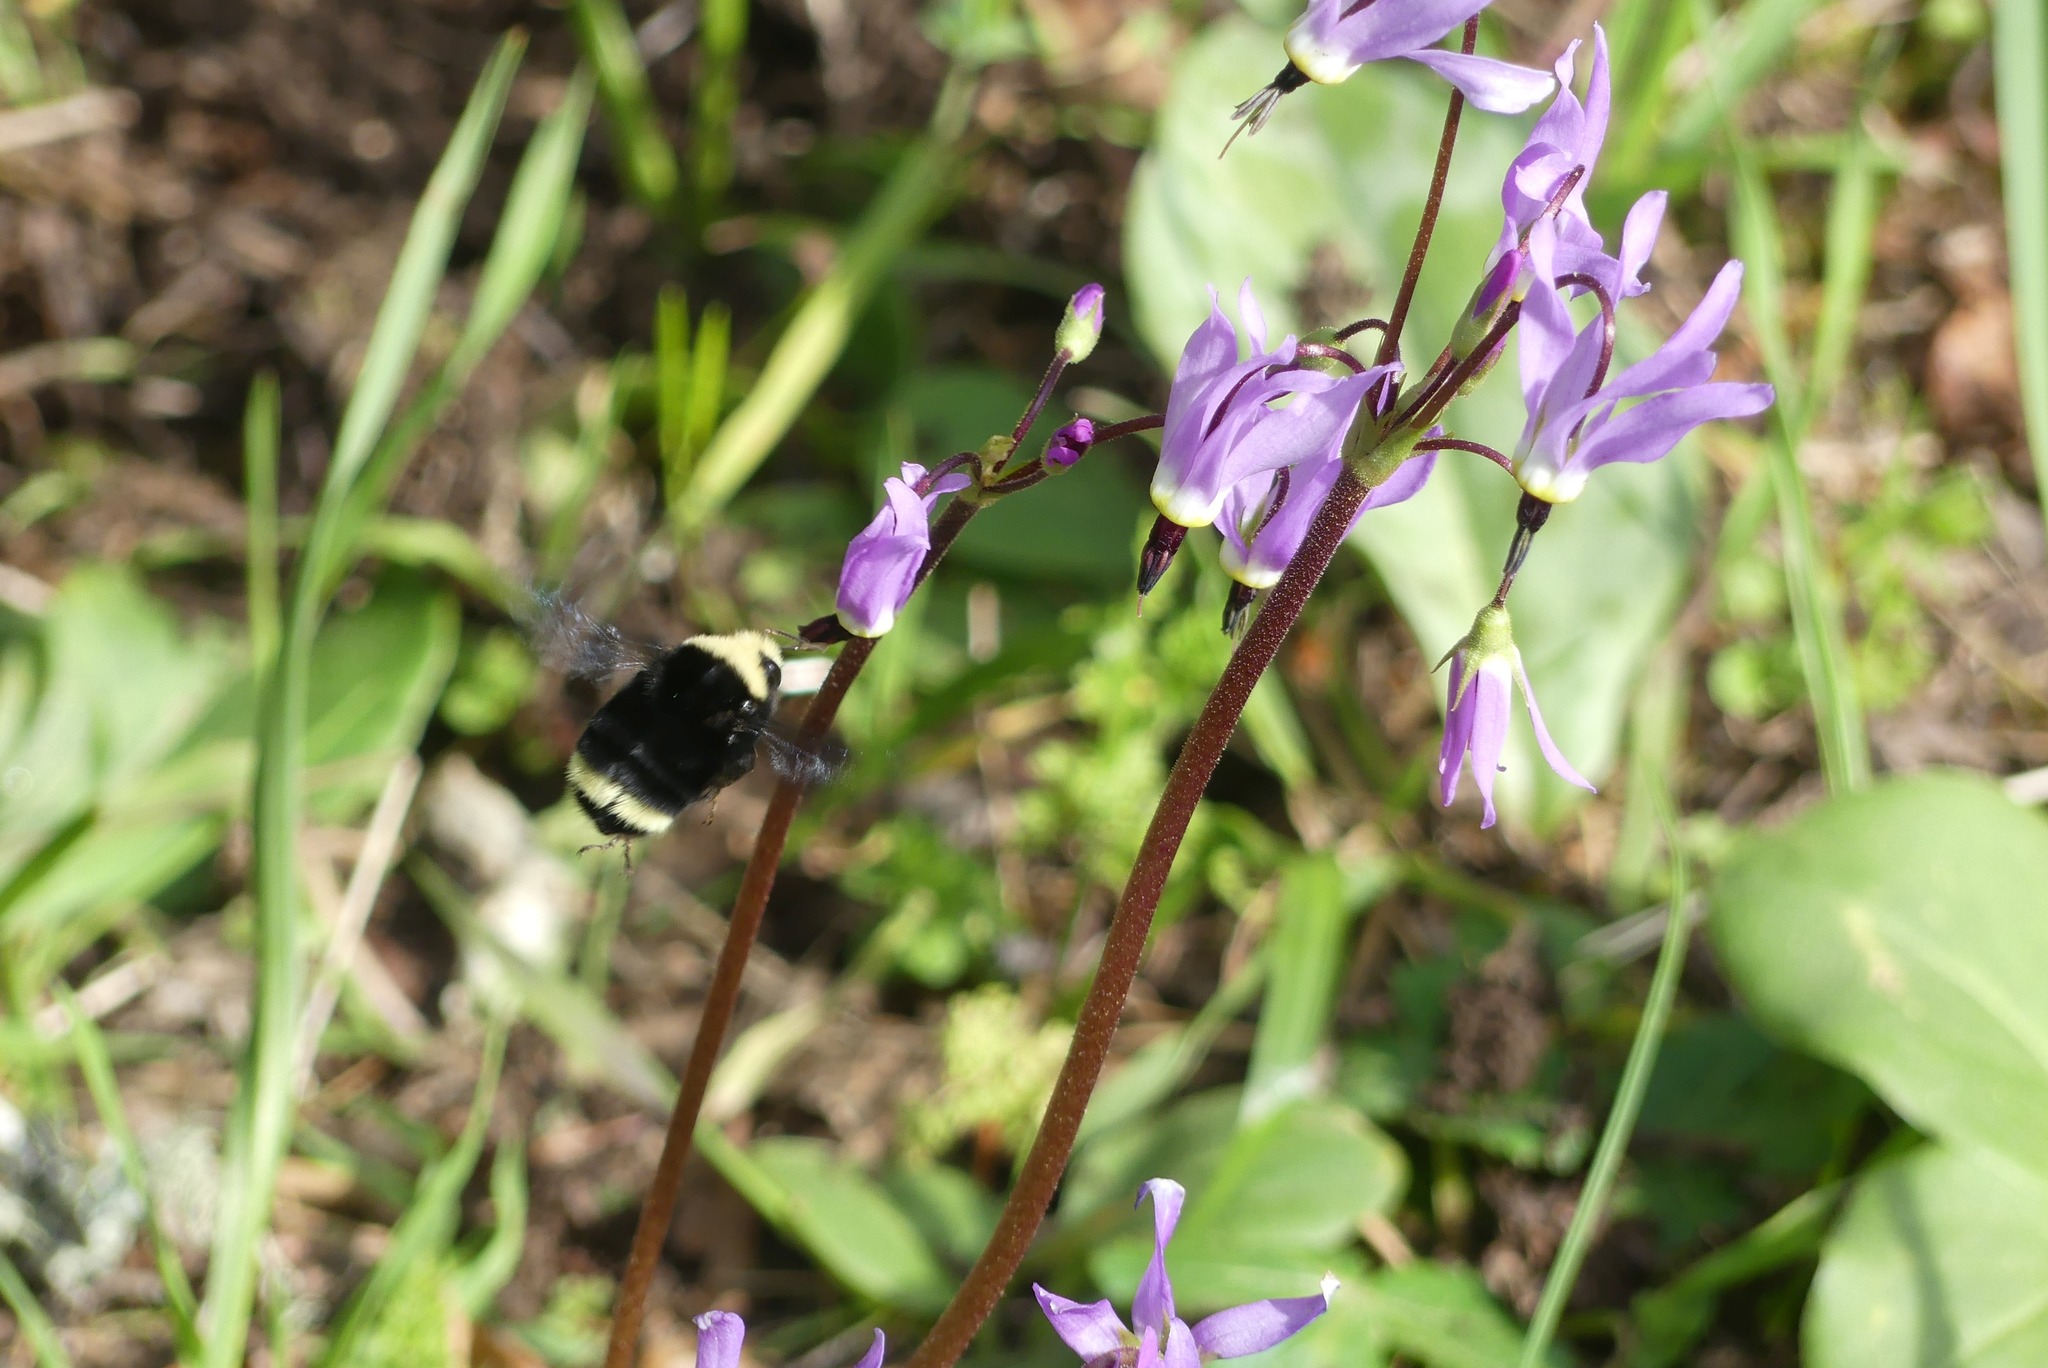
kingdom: Animalia
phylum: Arthropoda
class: Insecta
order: Hymenoptera
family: Apidae
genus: Bombus
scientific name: Bombus vosnesenskii
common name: Vosnesensky bumble bee
